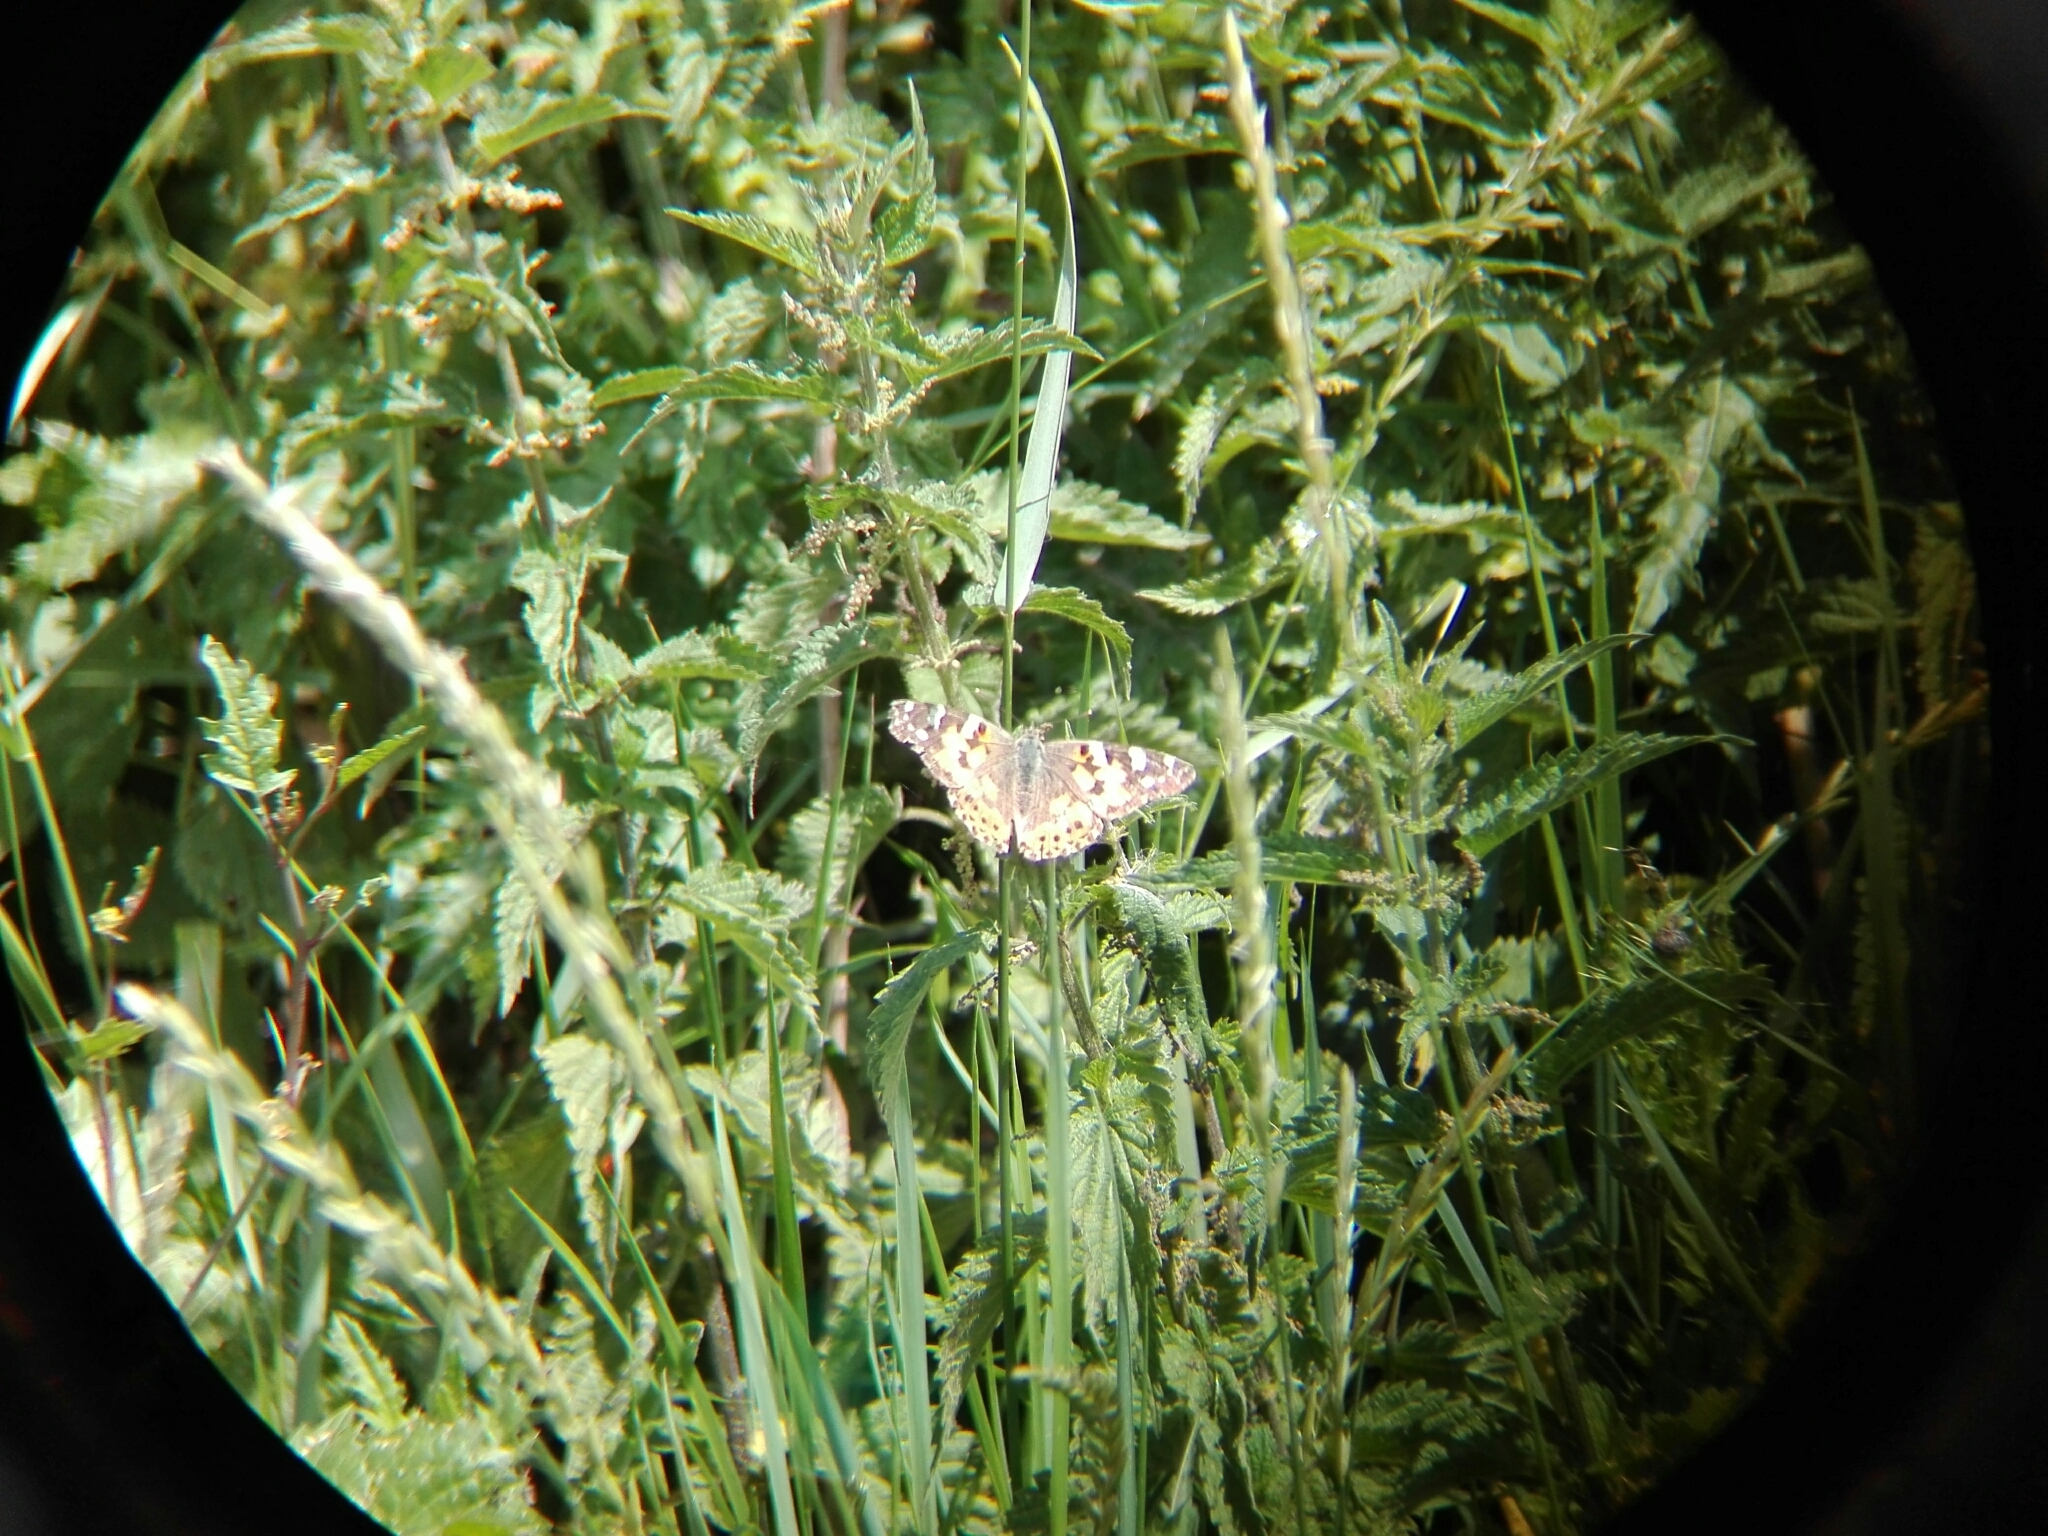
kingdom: Animalia
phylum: Arthropoda
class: Insecta
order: Lepidoptera
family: Nymphalidae
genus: Vanessa
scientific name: Vanessa cardui
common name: Painted lady
